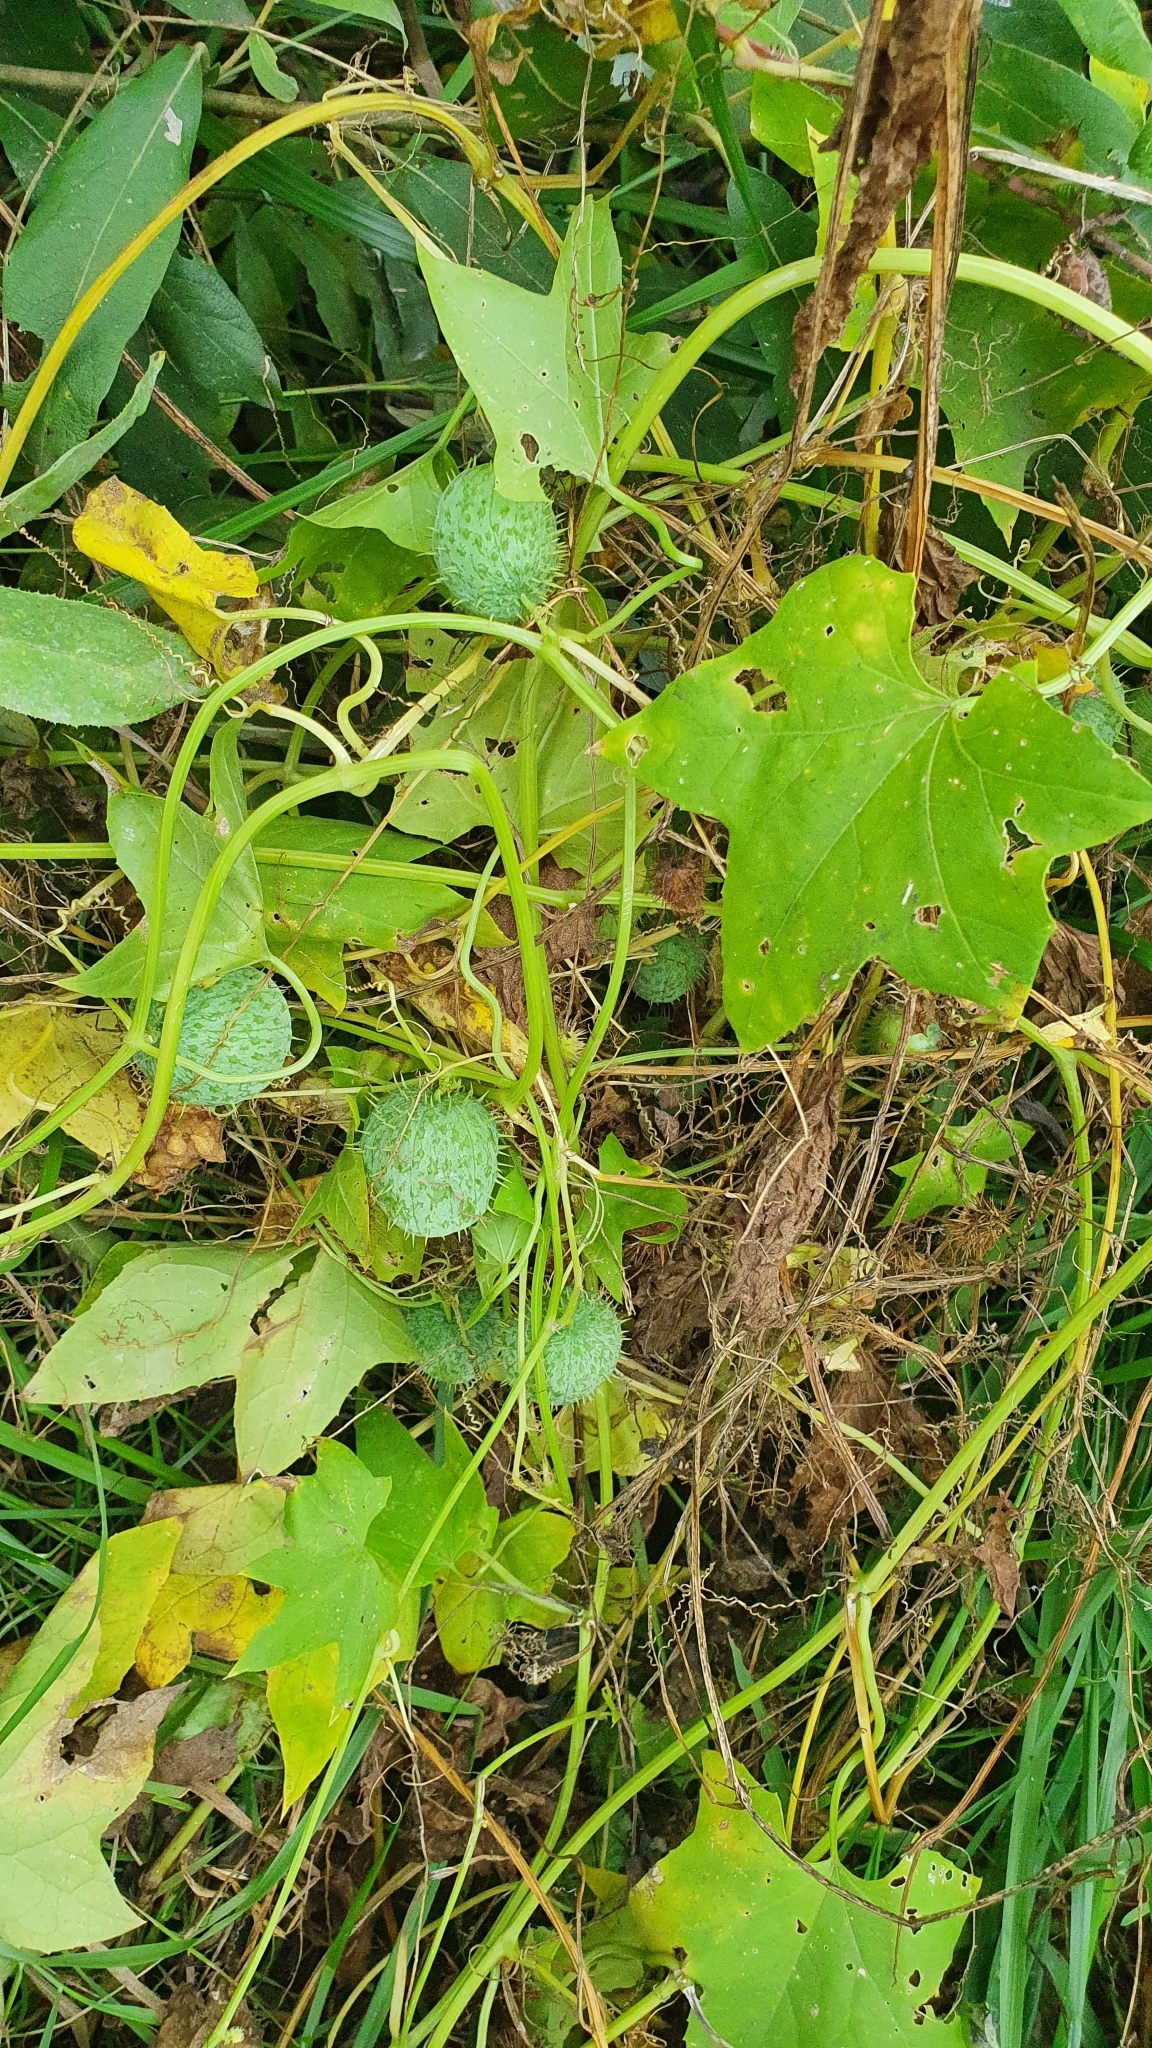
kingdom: Plantae
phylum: Tracheophyta
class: Magnoliopsida
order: Cucurbitales
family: Cucurbitaceae
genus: Echinocystis
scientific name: Echinocystis lobata
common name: Wild cucumber
